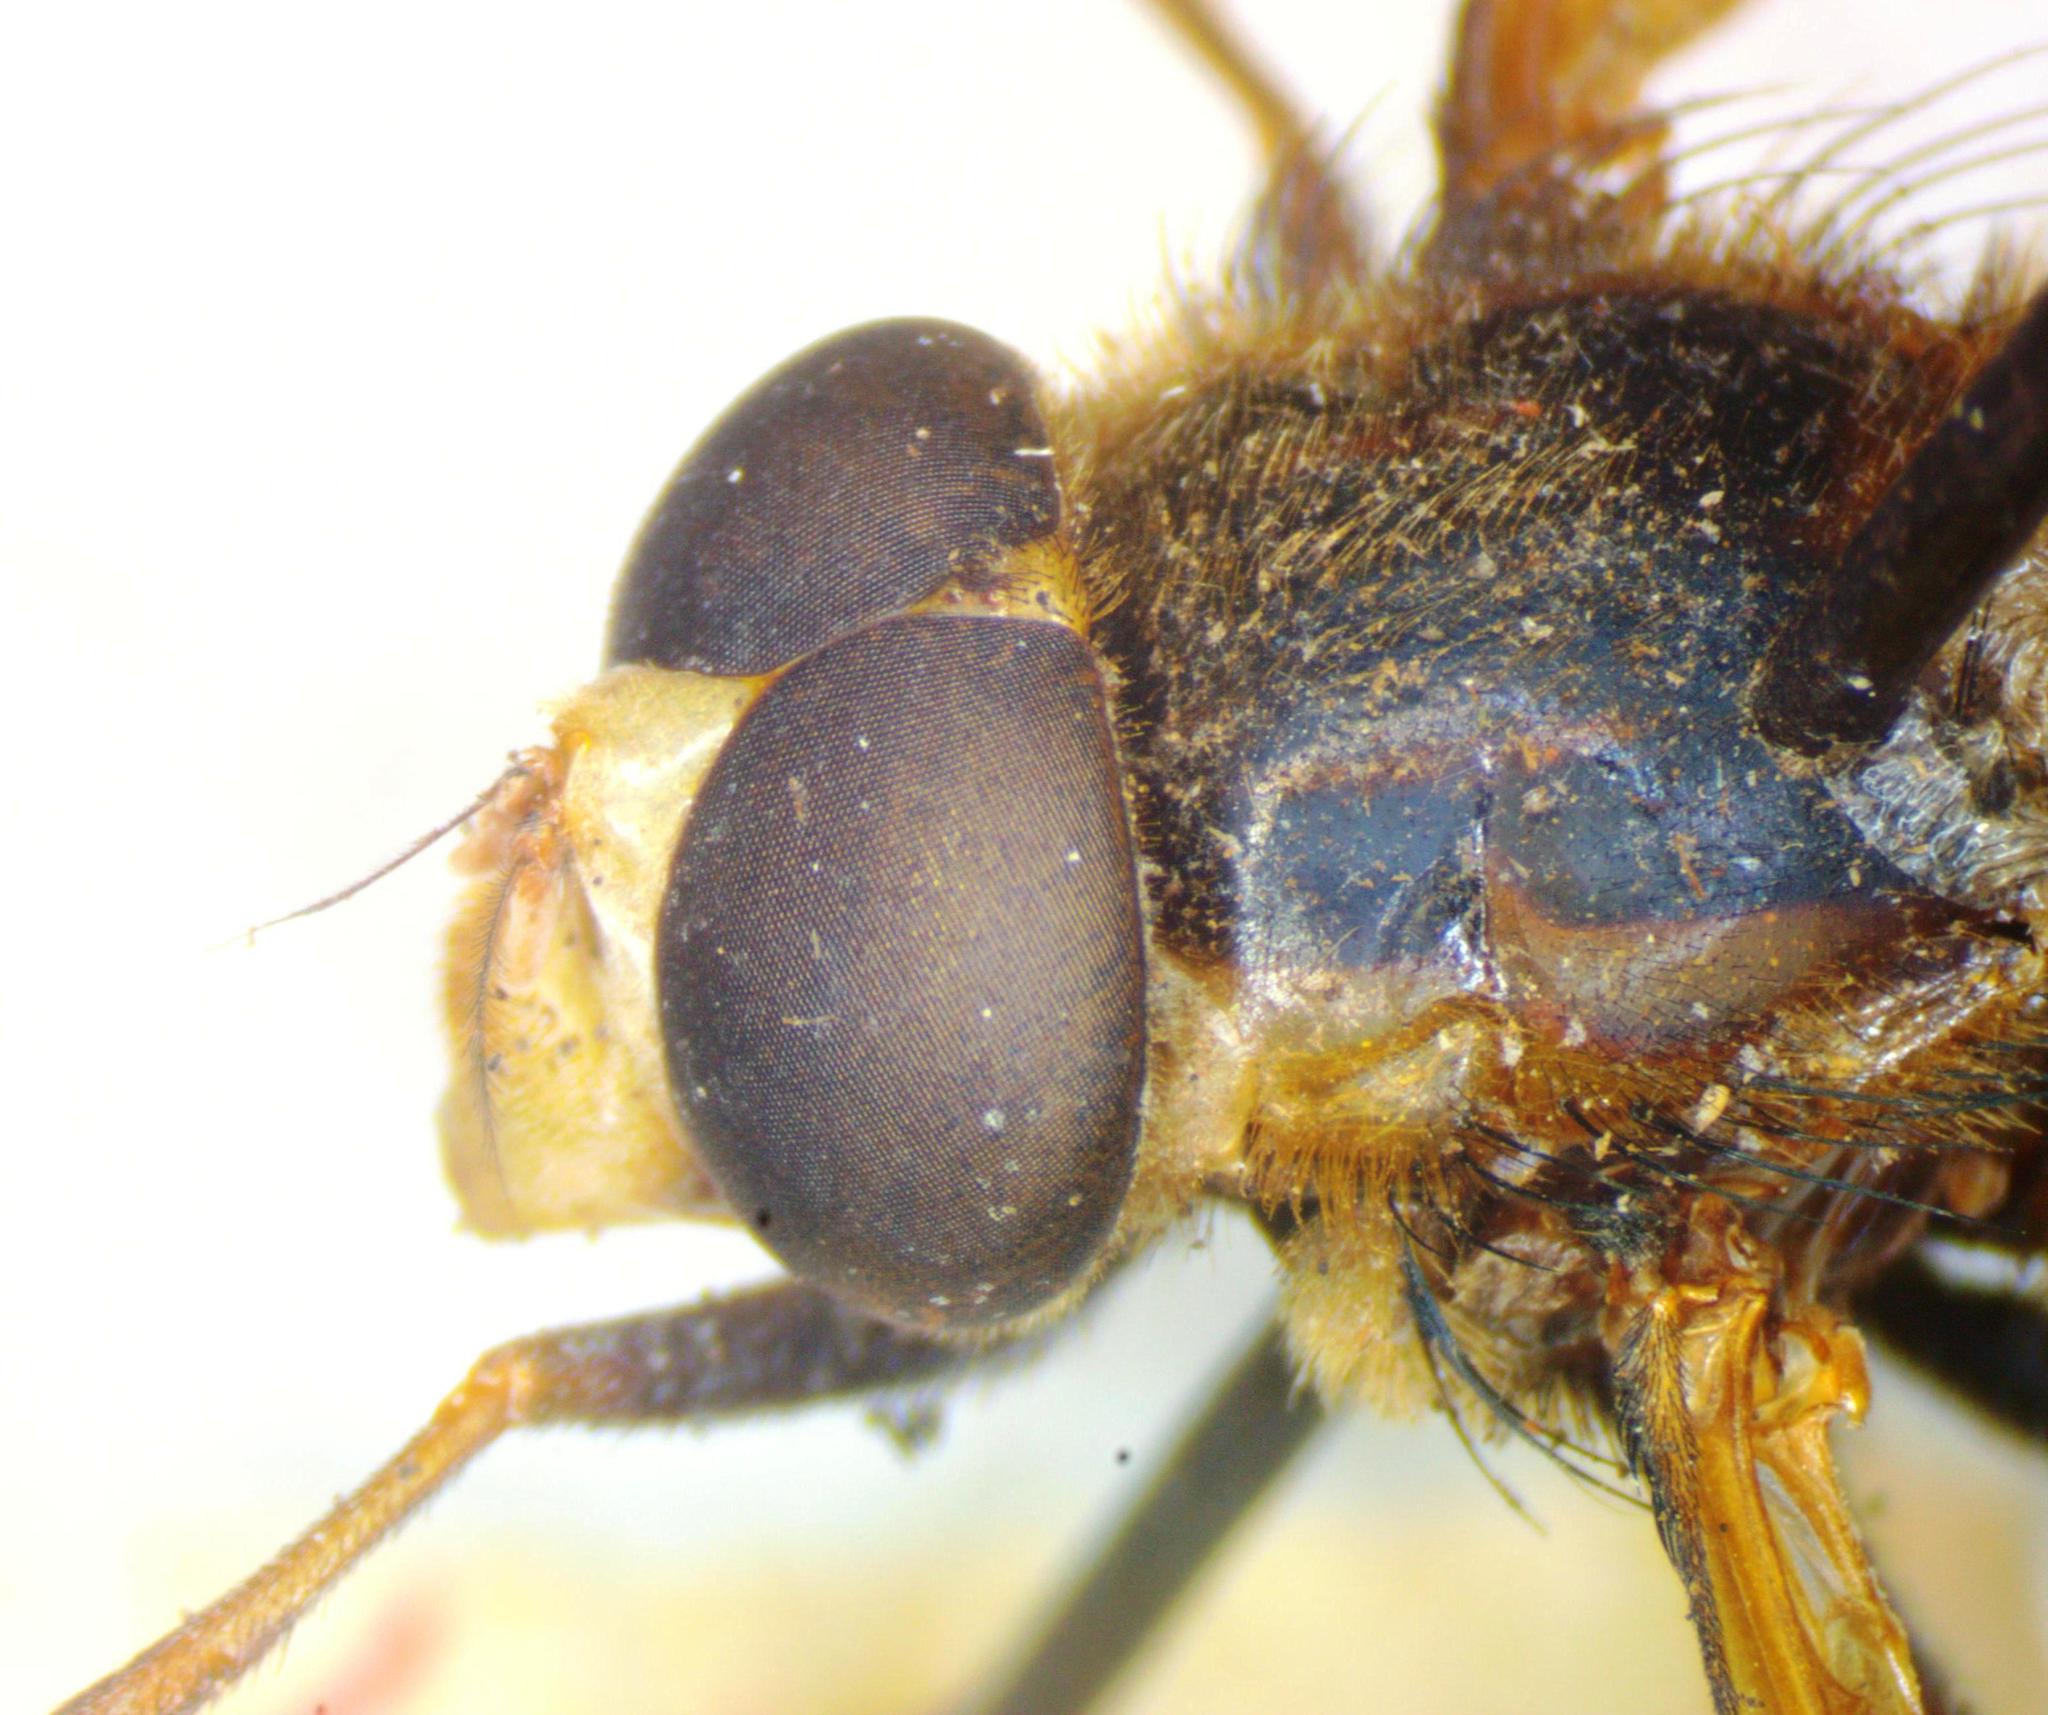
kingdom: Animalia
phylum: Arthropoda
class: Insecta
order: Diptera
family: Syrphidae
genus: Volucella
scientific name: Volucella inanis
